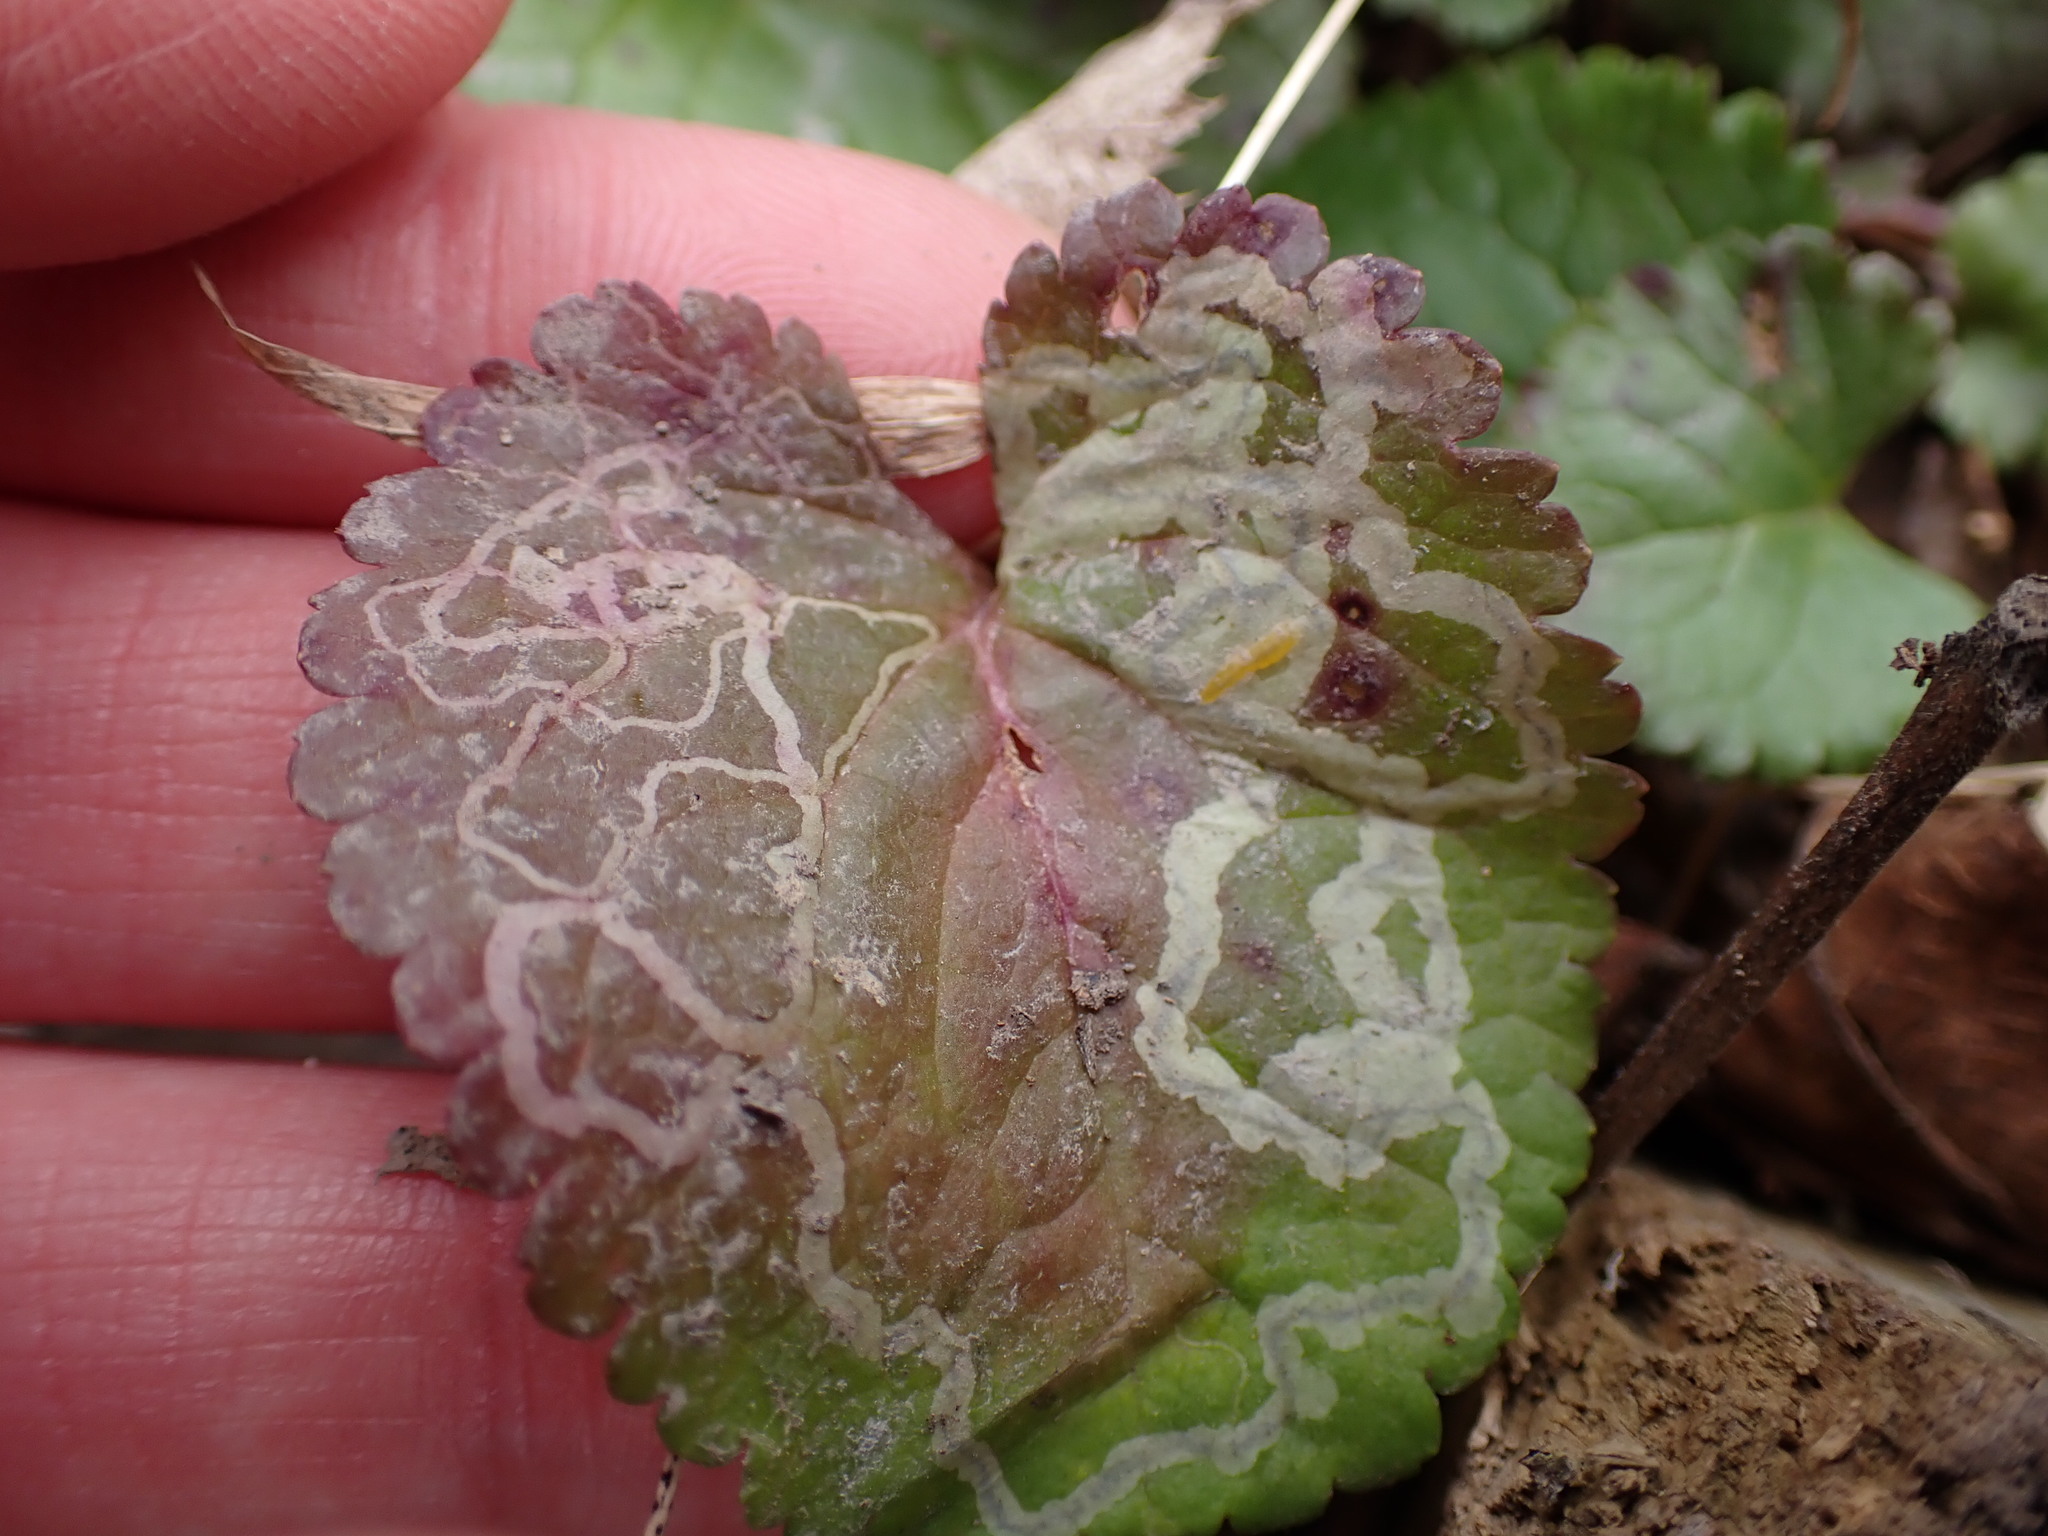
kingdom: Animalia
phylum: Arthropoda
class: Insecta
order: Lepidoptera
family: Gracillariidae
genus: Phyllocnistis
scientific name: Phyllocnistis insignis
